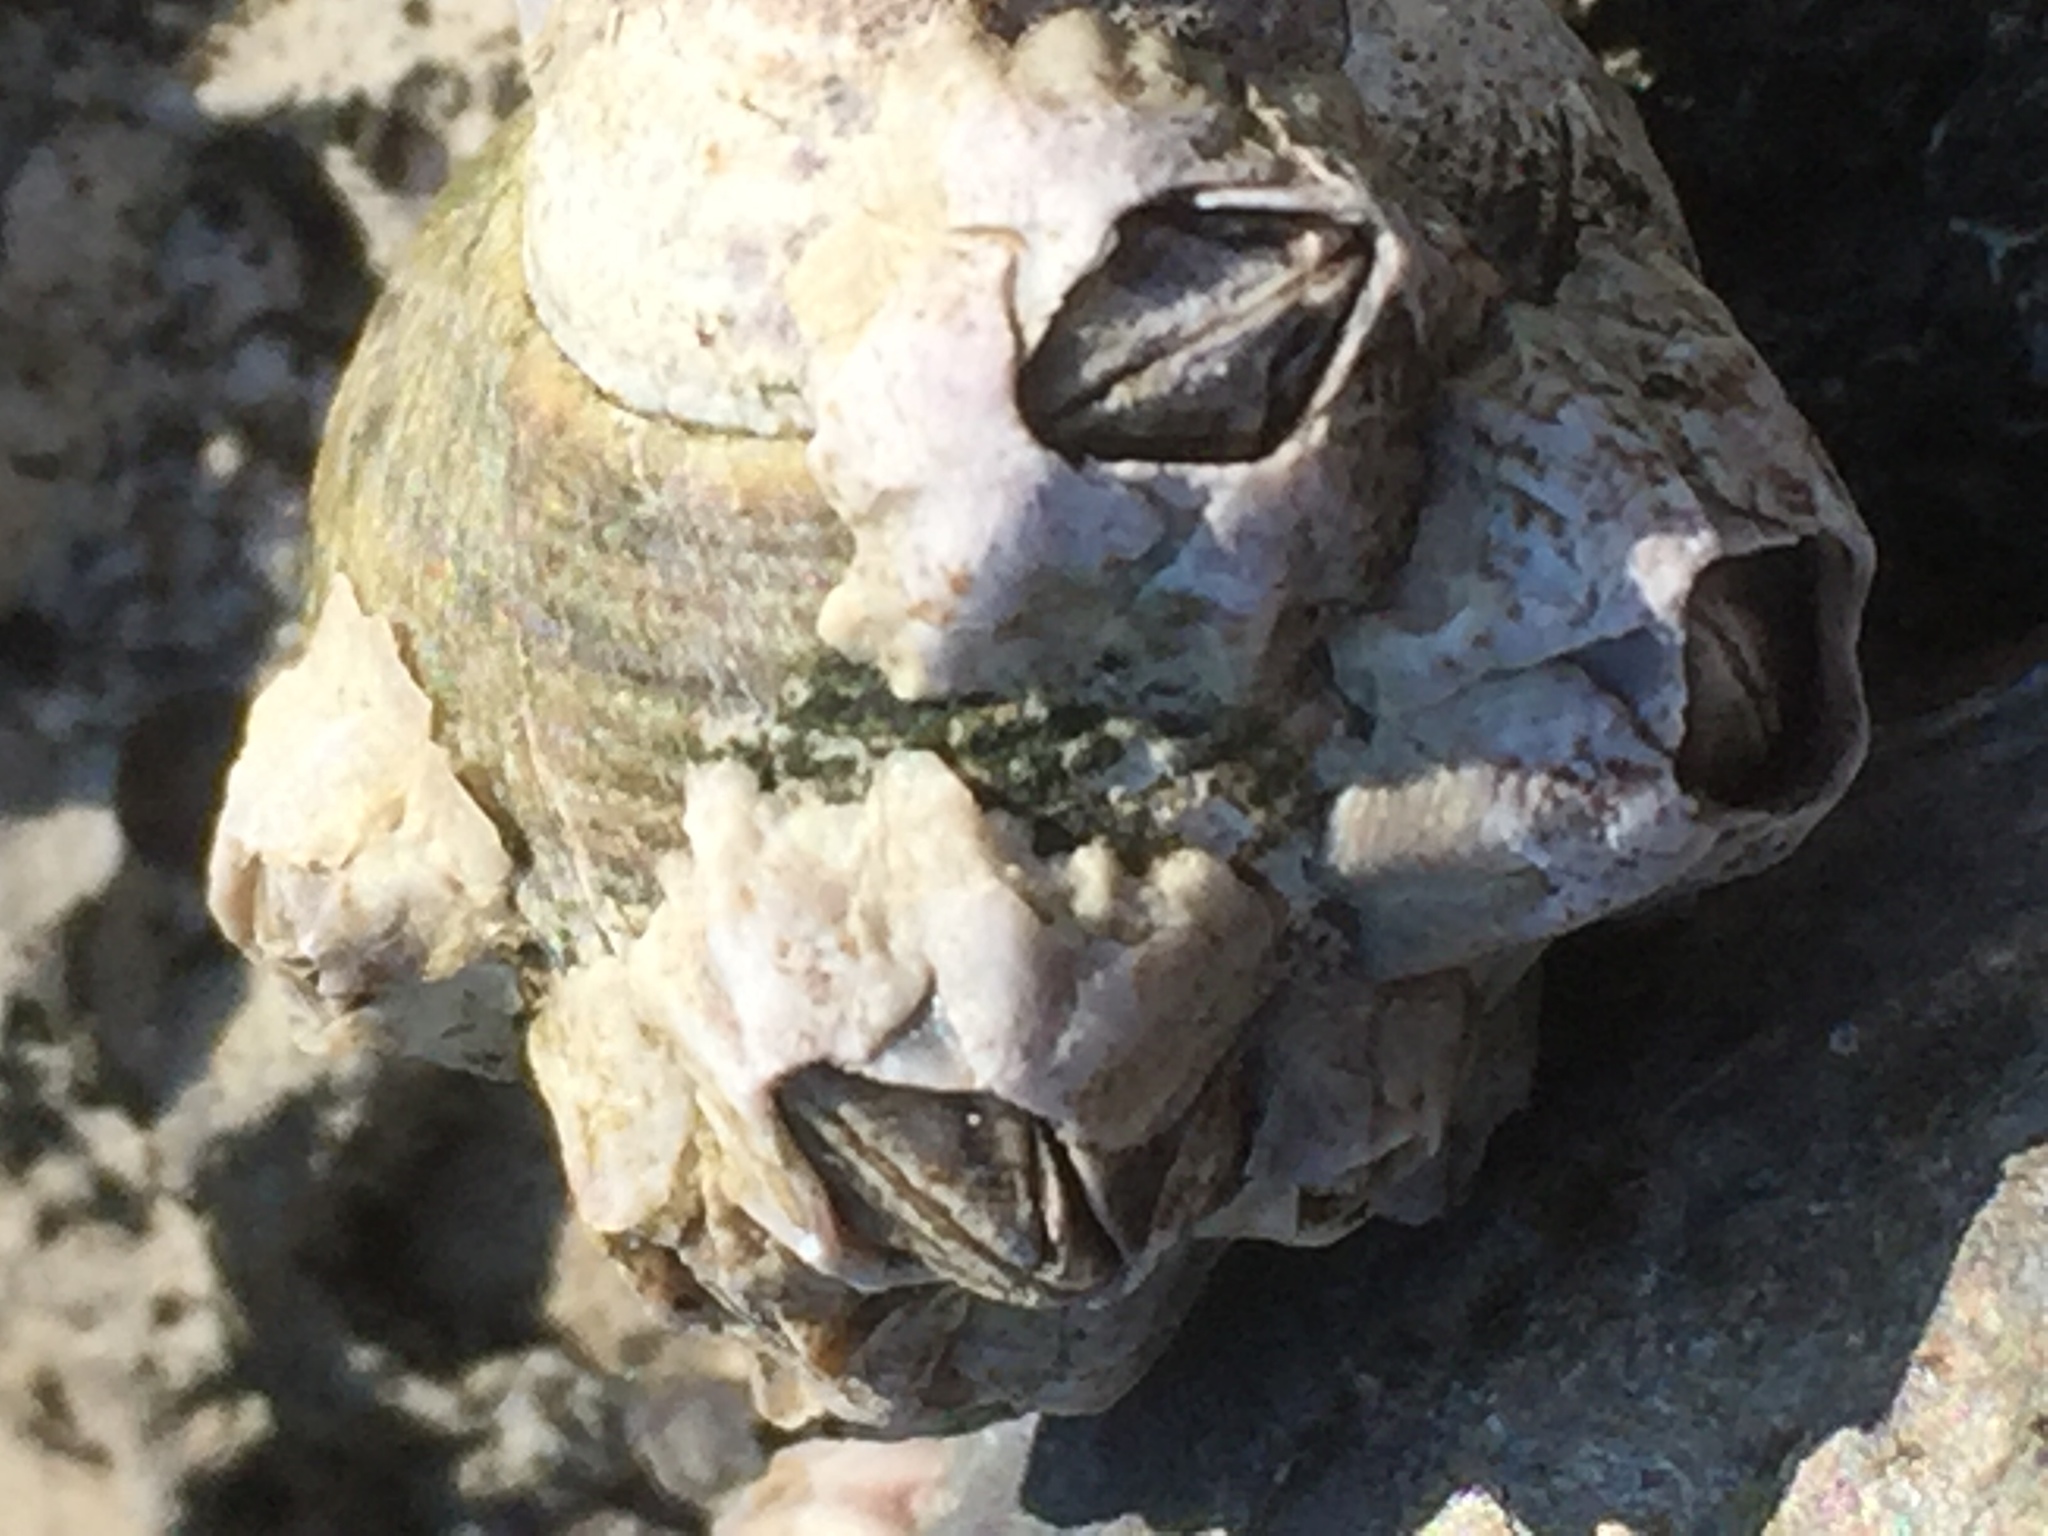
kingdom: Animalia
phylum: Arthropoda
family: Elminiidae
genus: Austrominius
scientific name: Austrominius modestus
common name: Australasian barnacle
